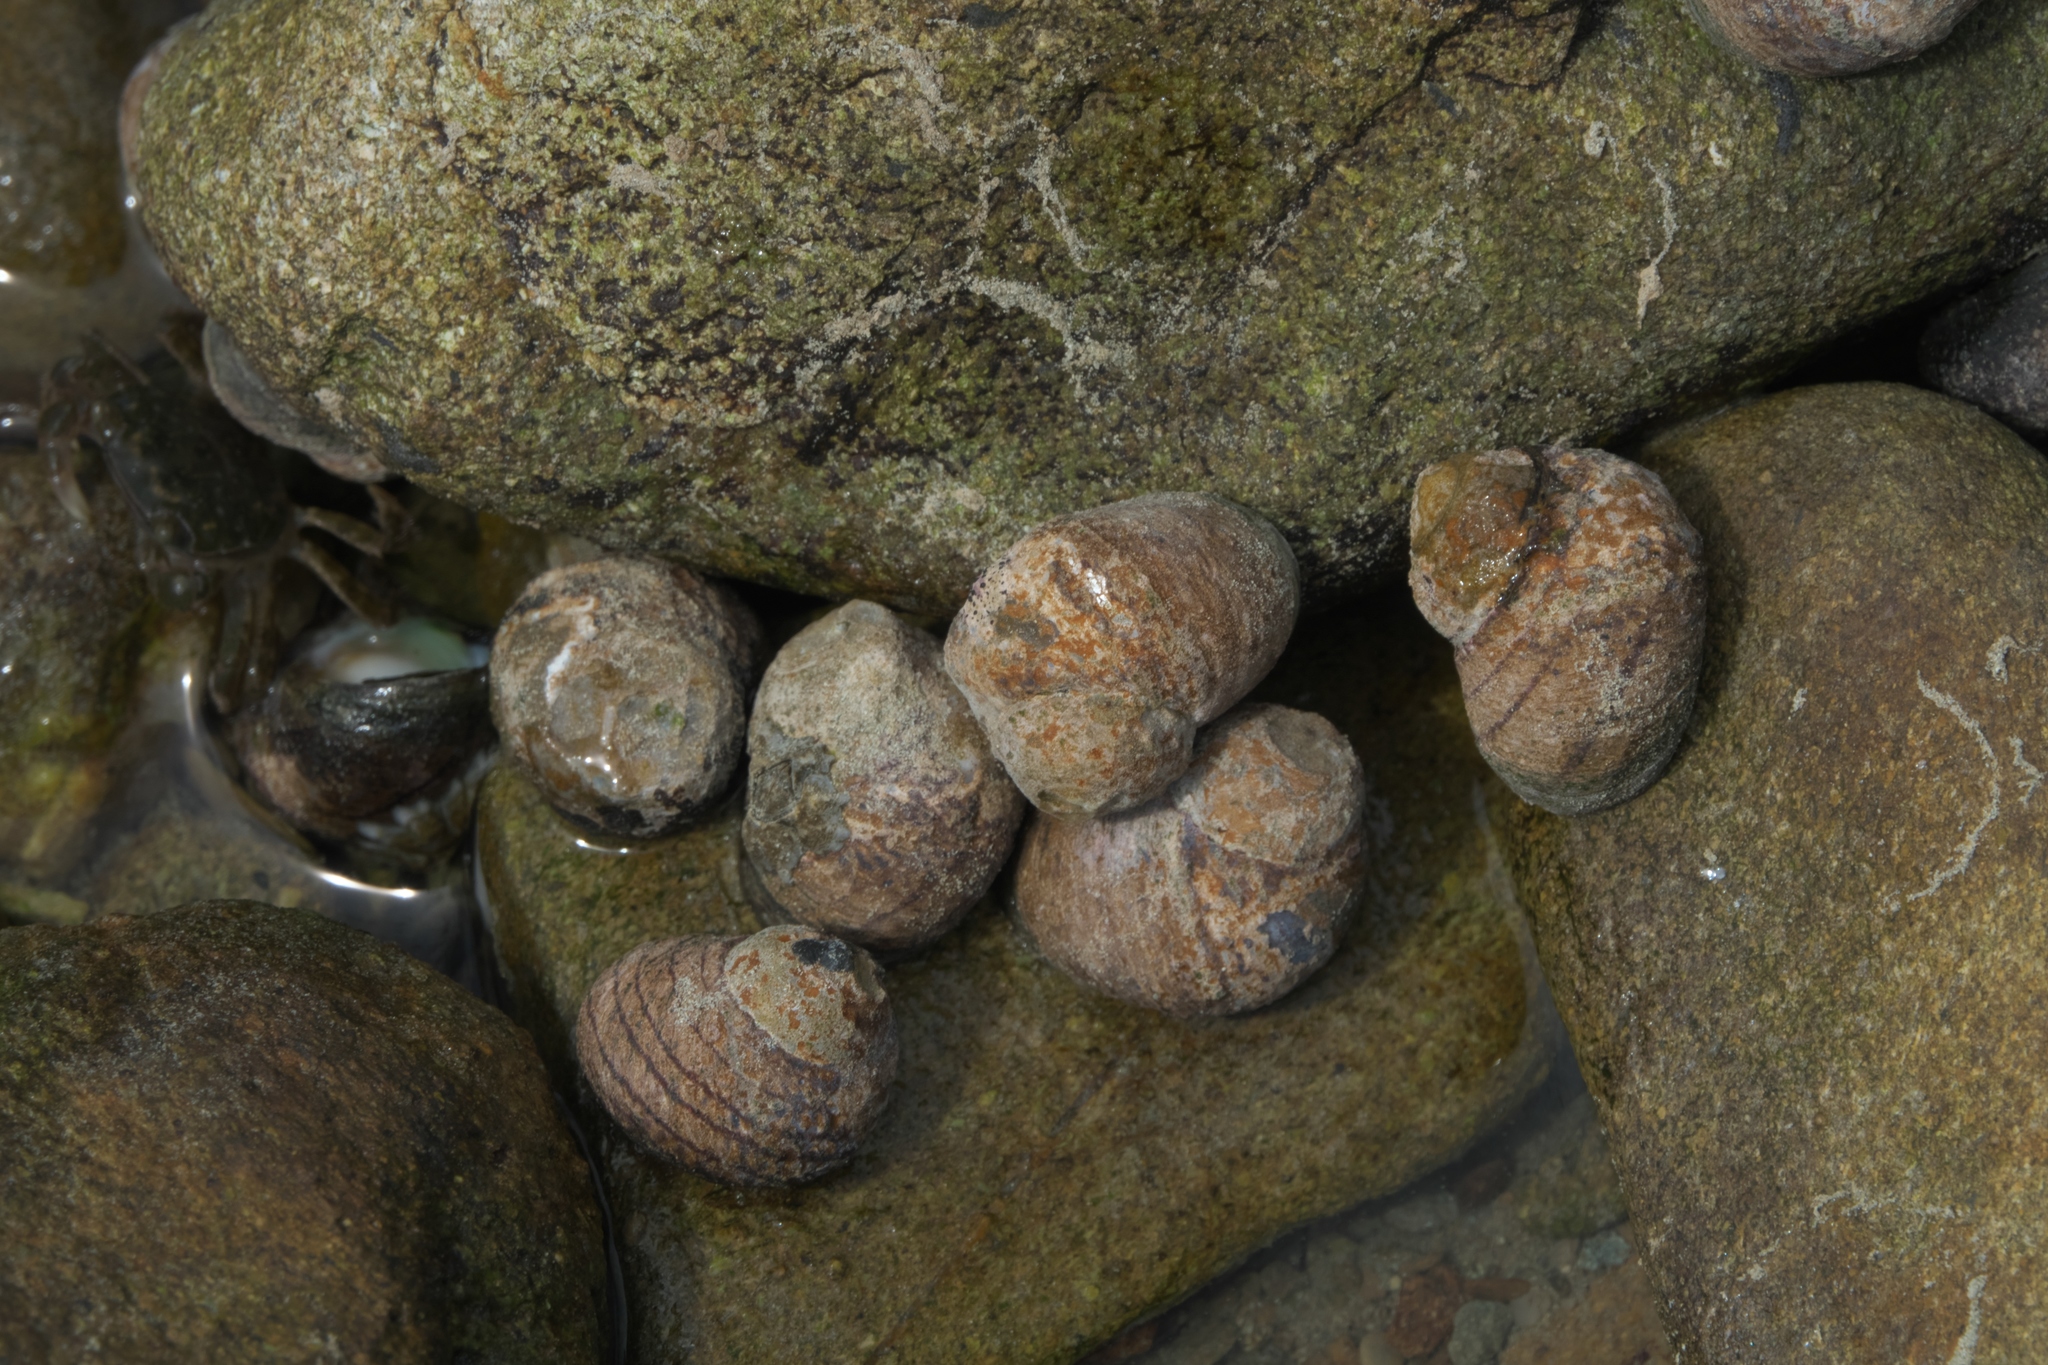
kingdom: Animalia
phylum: Mollusca
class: Gastropoda
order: Trochida
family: Trochidae
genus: Diloma
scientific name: Diloma aethiops
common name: Scorched monodont
